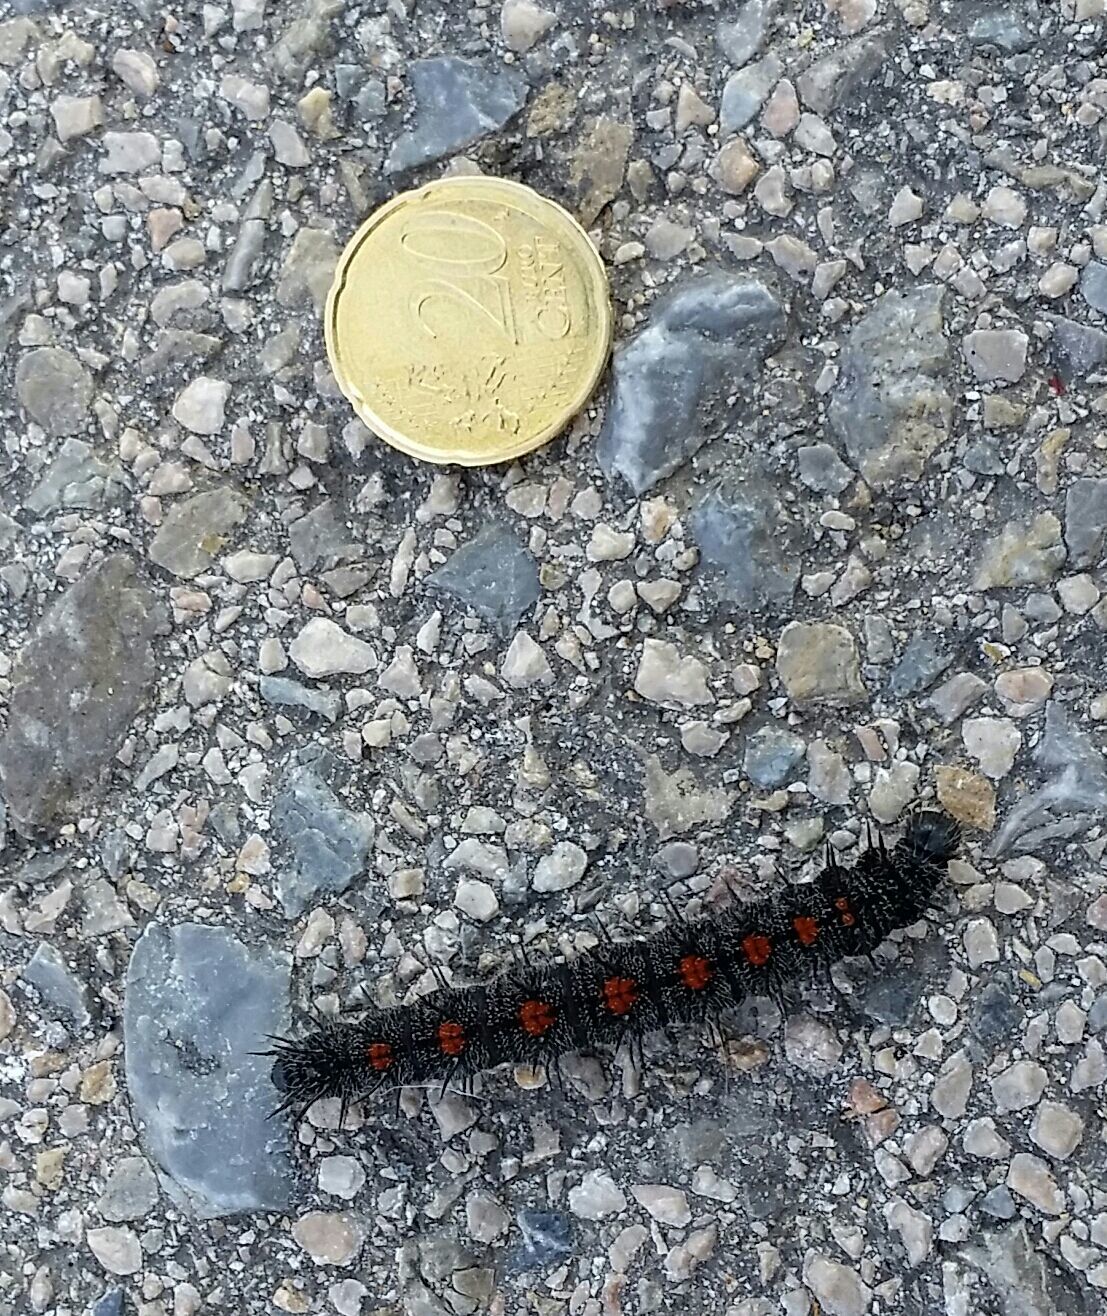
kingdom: Animalia
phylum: Arthropoda
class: Insecta
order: Lepidoptera
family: Nymphalidae
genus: Nymphalis
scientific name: Nymphalis antiopa
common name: Camberwell beauty
